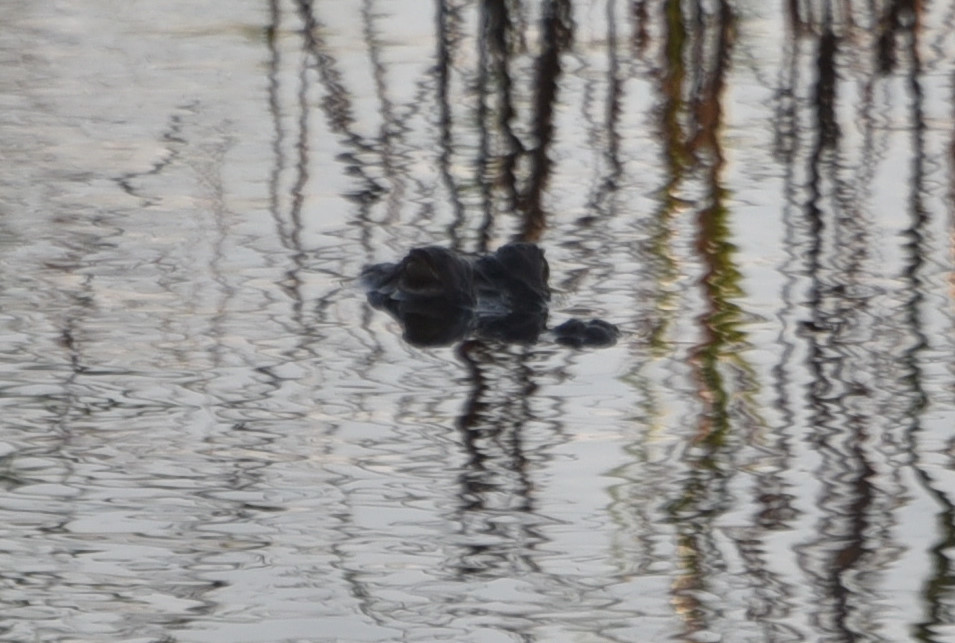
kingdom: Animalia
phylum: Chordata
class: Crocodylia
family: Alligatoridae
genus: Alligator
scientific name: Alligator mississippiensis
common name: American alligator
